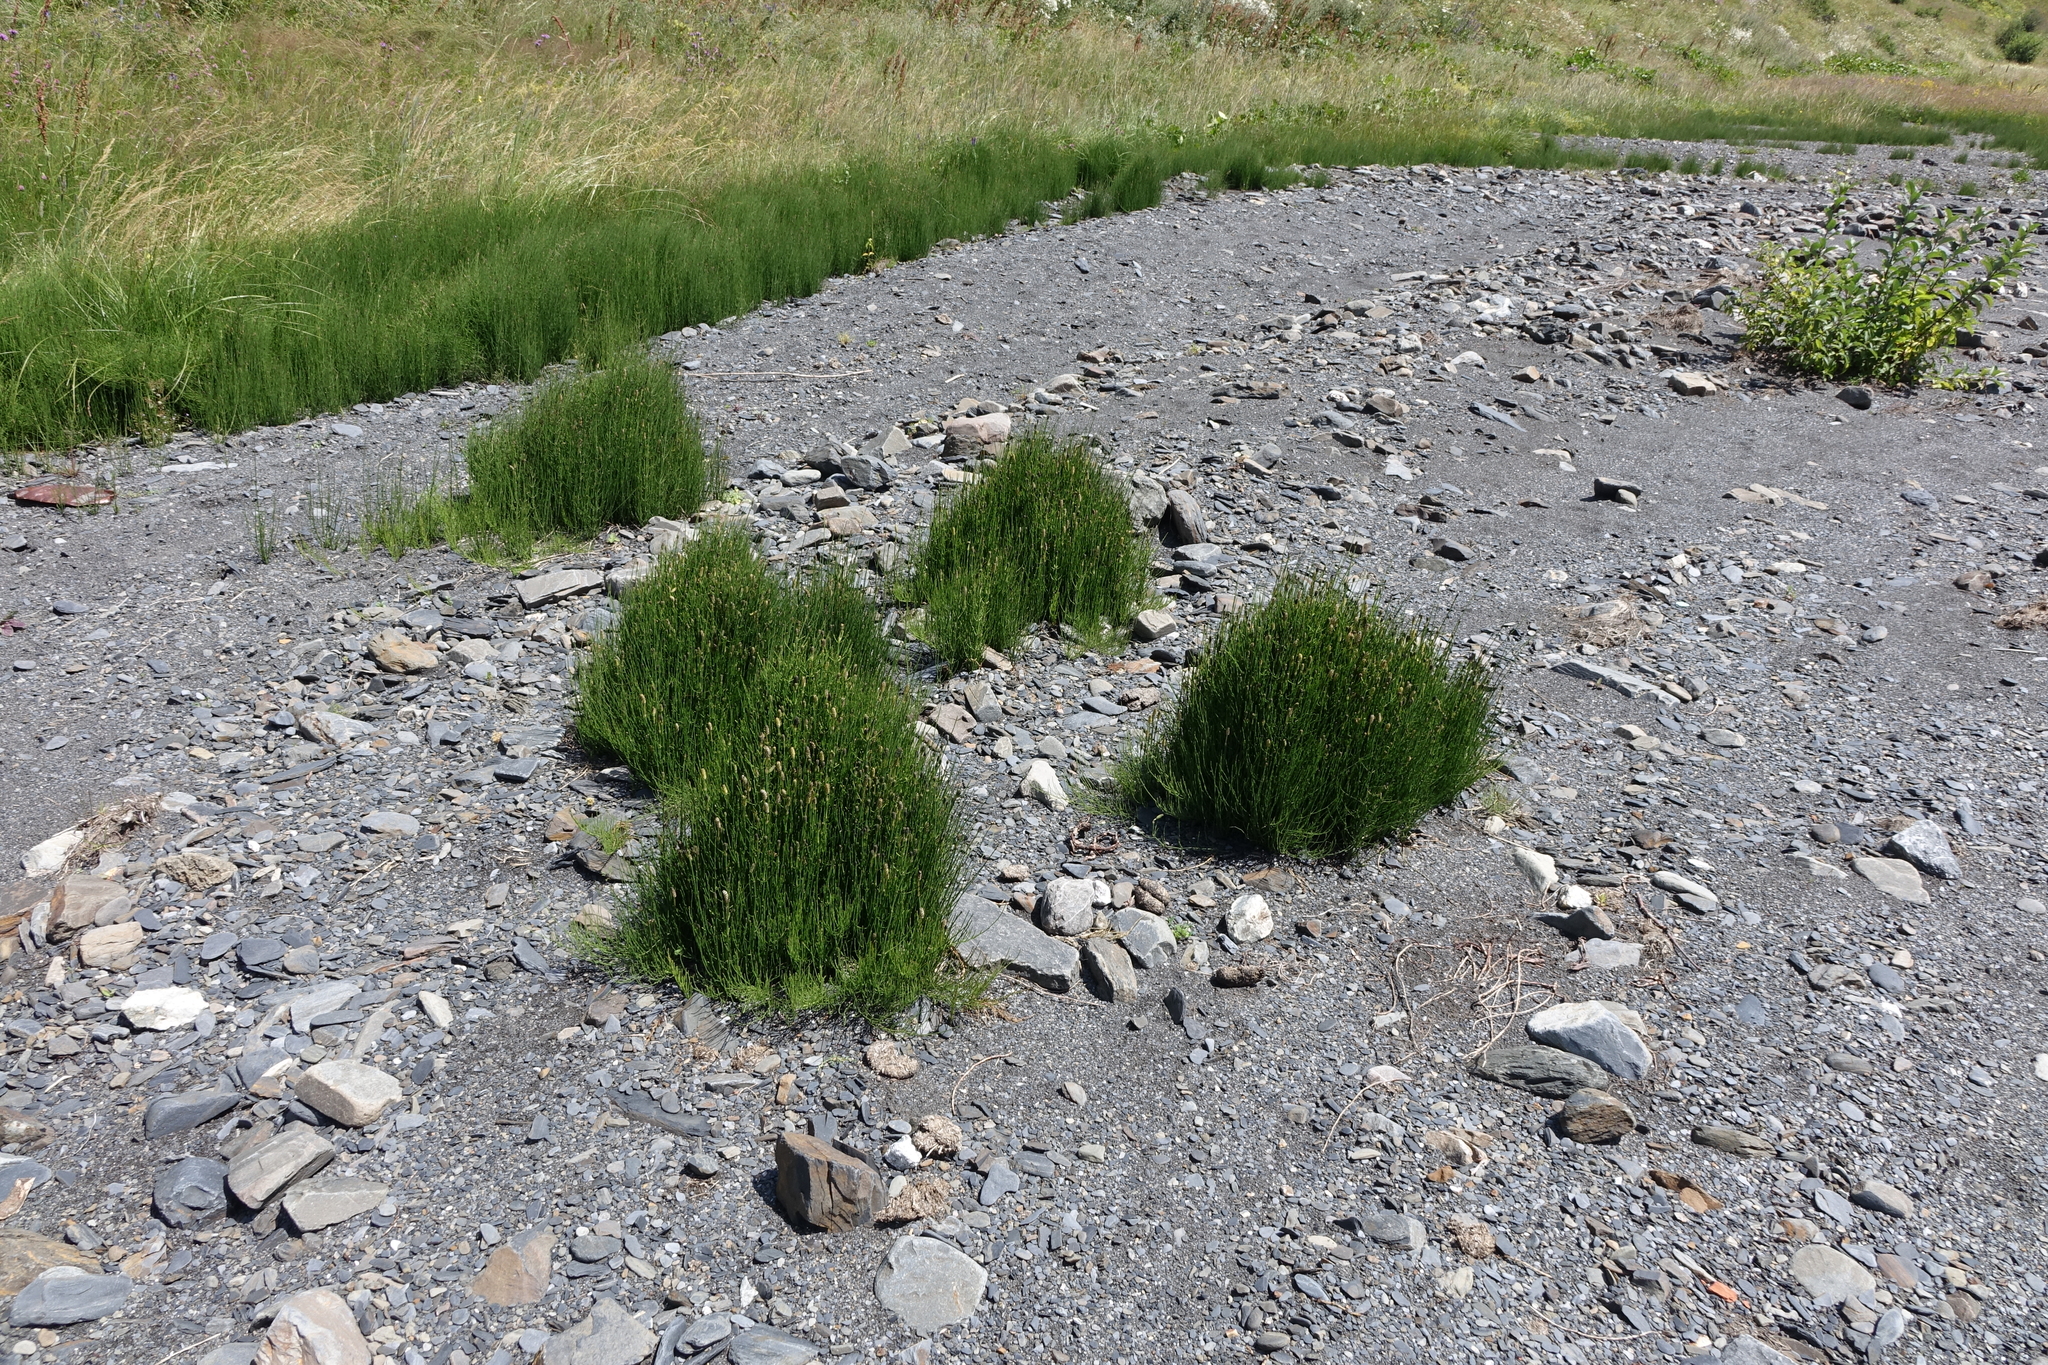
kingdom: Plantae
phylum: Tracheophyta
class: Polypodiopsida
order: Equisetales
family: Equisetaceae
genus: Equisetum
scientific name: Equisetum ramosissimum
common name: Branched horsetail
